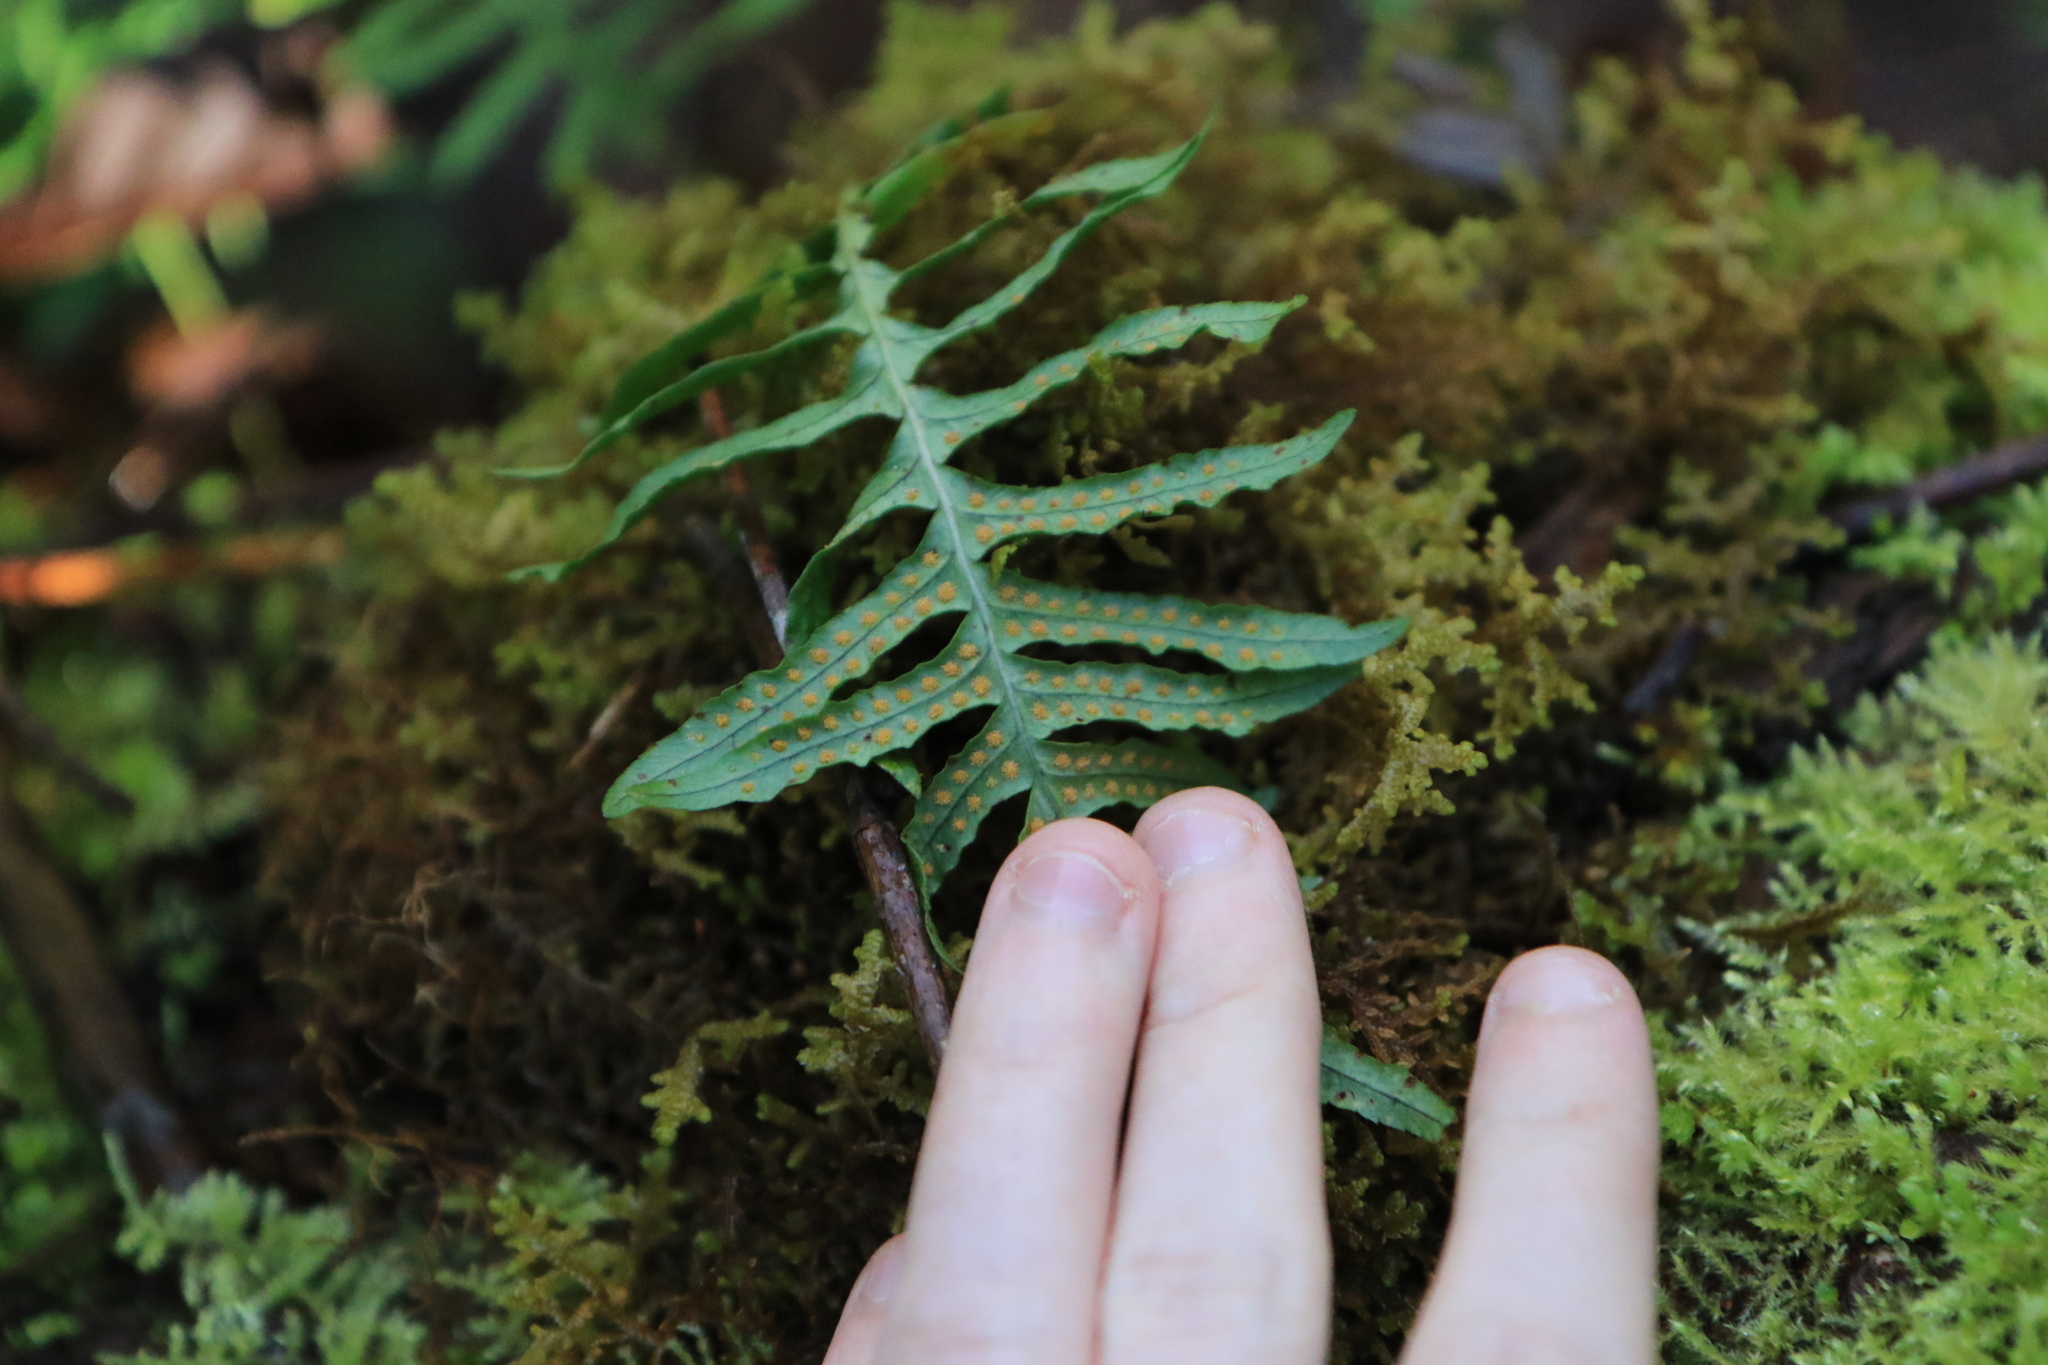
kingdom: Plantae
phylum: Tracheophyta
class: Polypodiopsida
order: Polypodiales
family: Polypodiaceae
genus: Polypodium
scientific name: Polypodium glycyrrhiza
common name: Licorice fern
